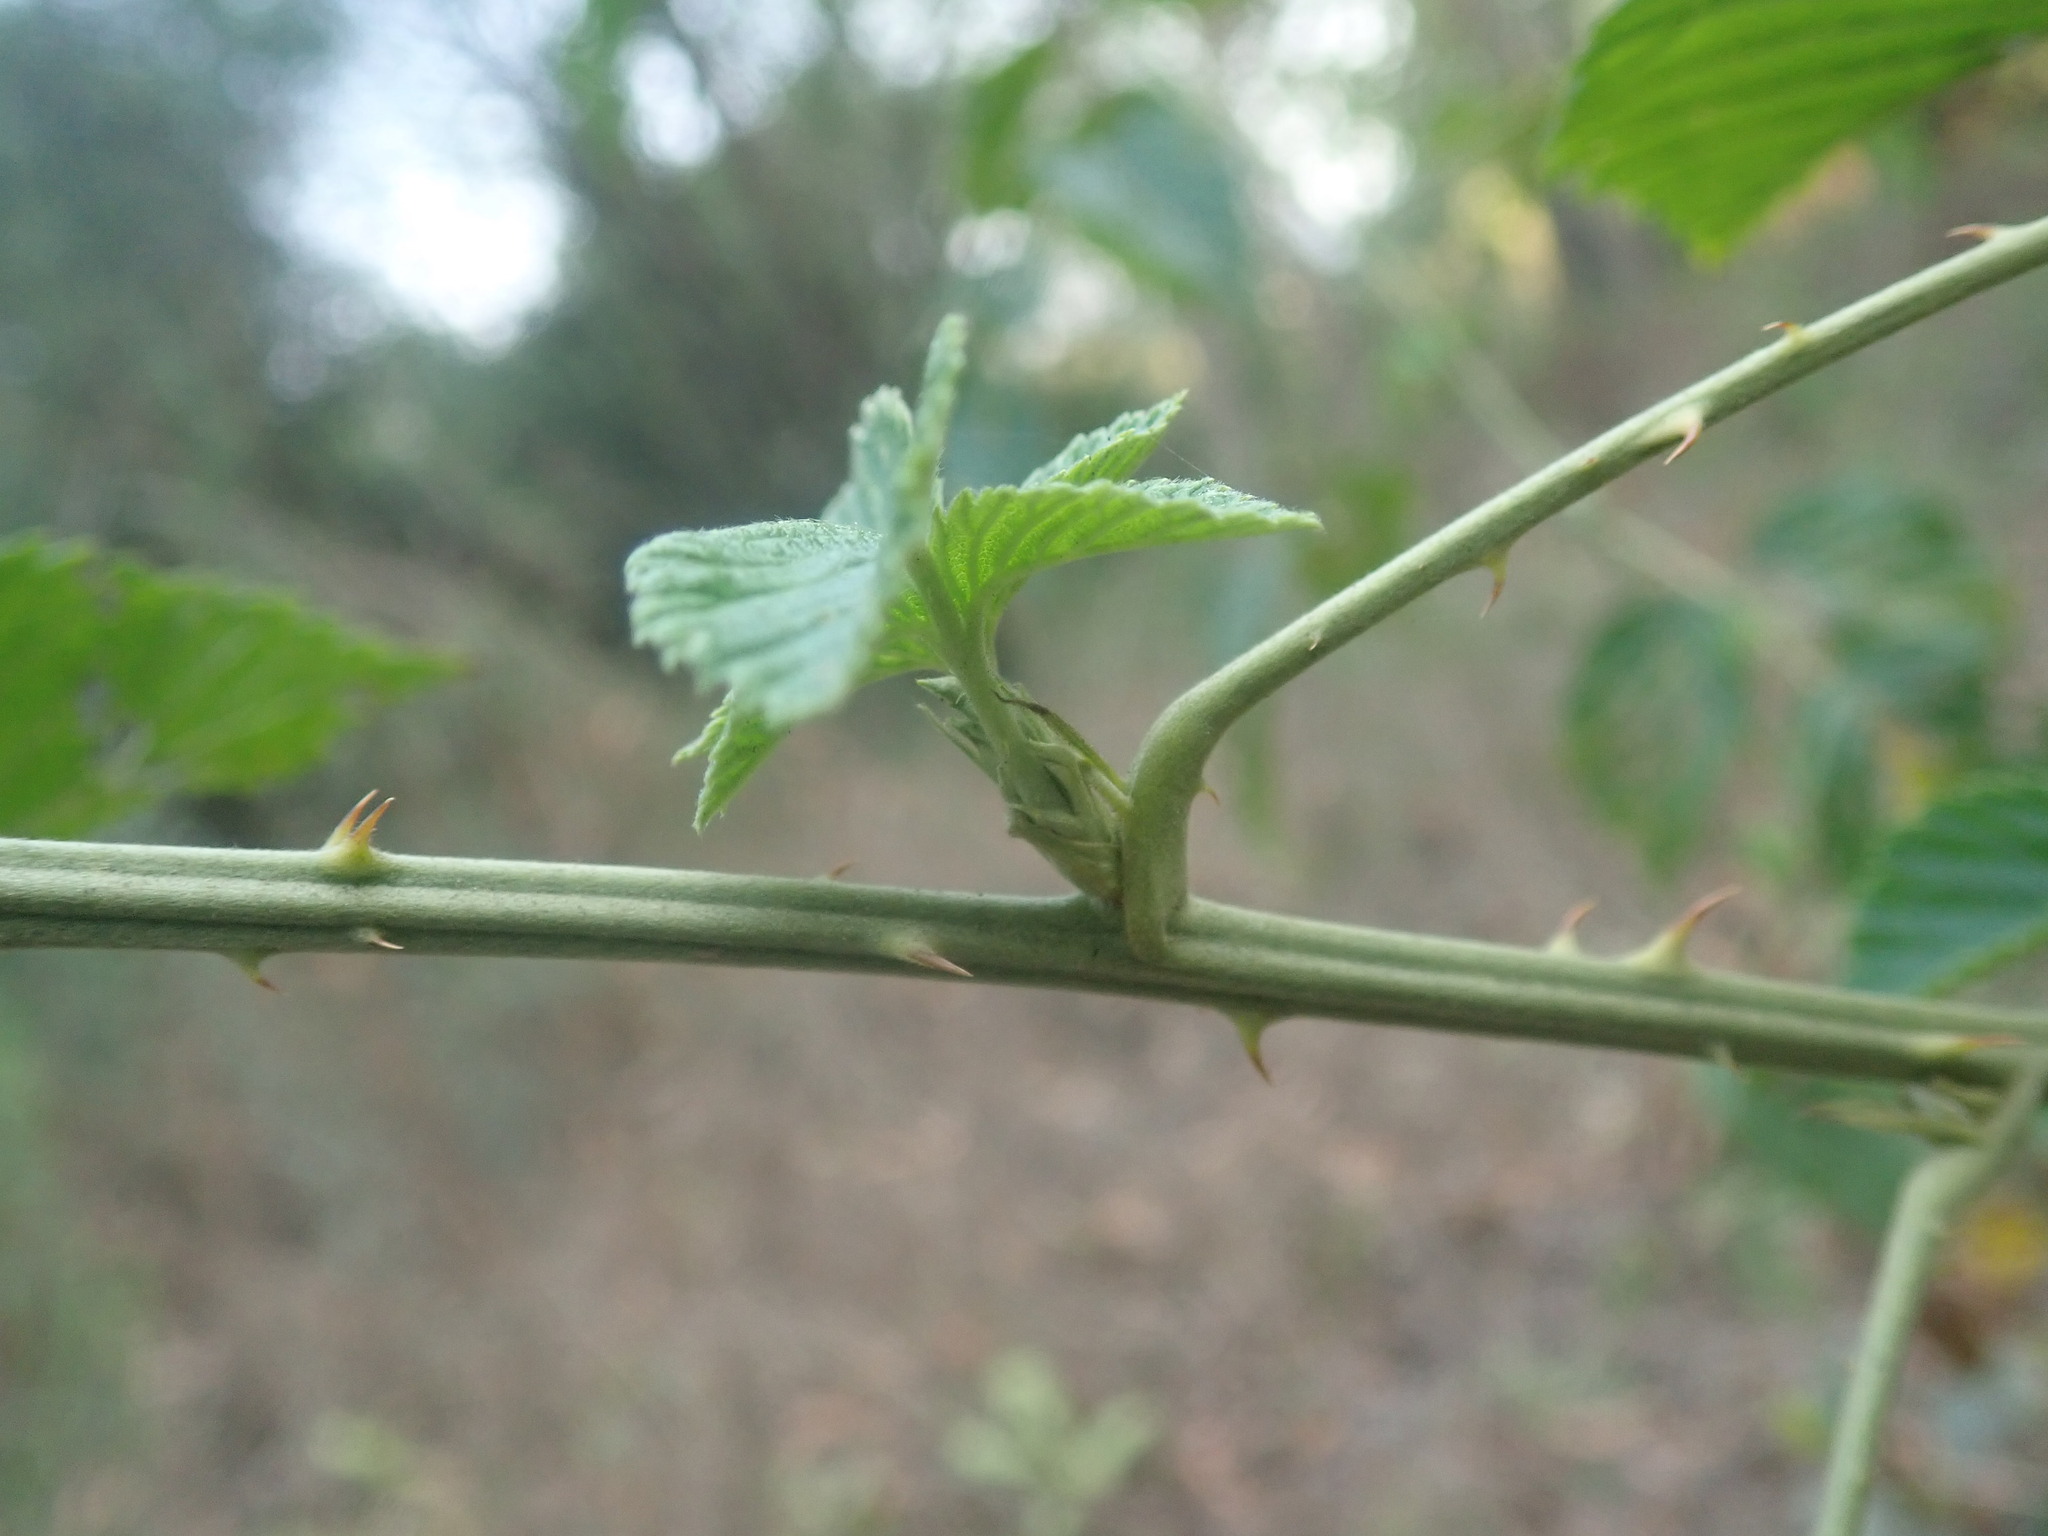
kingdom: Plantae
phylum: Tracheophyta
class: Magnoliopsida
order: Rosales
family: Rosaceae
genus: Rubus
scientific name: Rubus rigidus
